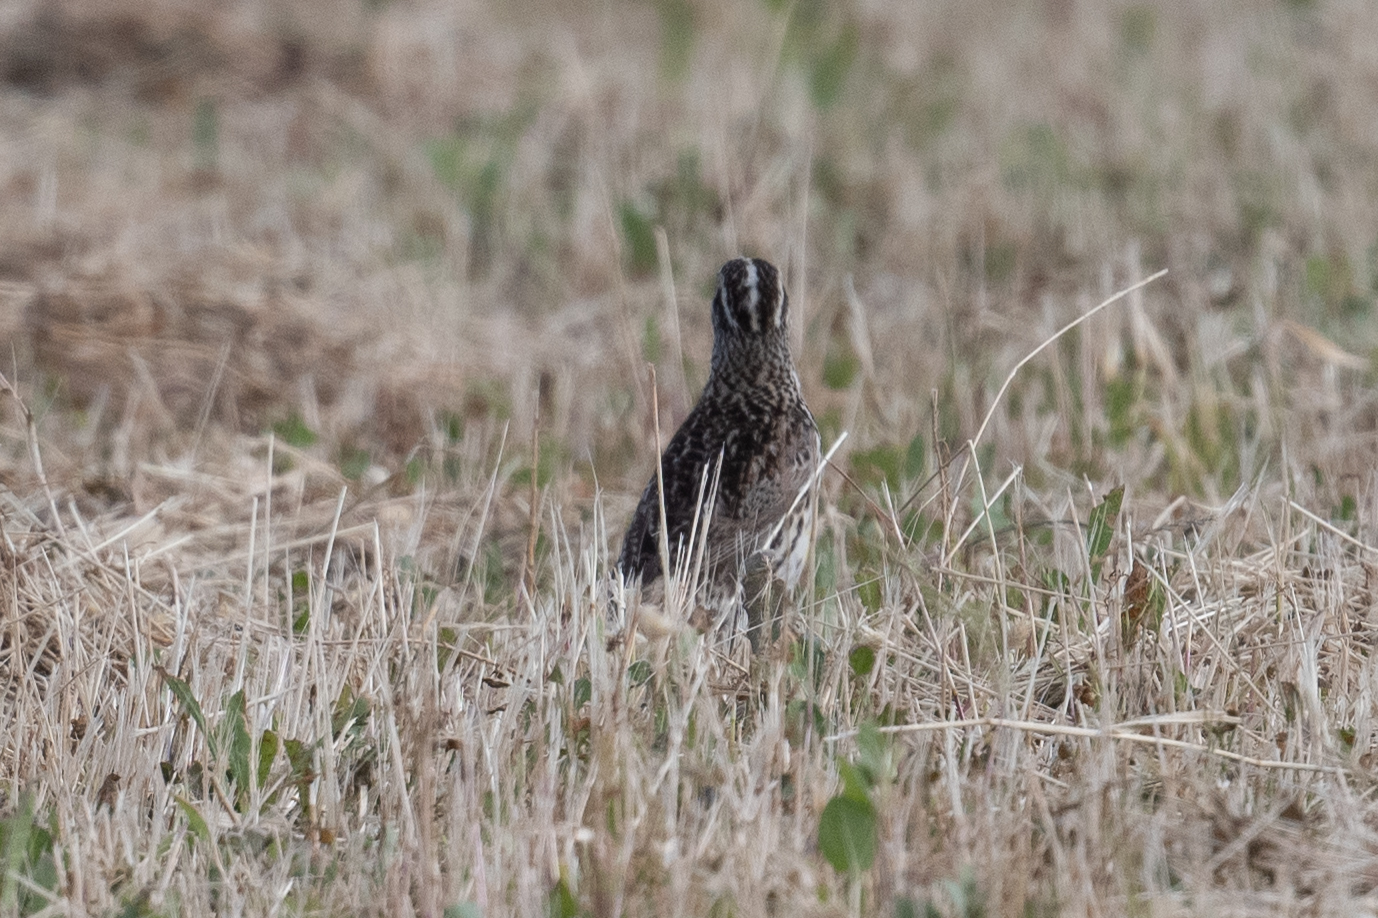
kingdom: Animalia
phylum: Chordata
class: Aves
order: Passeriformes
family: Icteridae
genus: Sturnella
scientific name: Sturnella neglecta
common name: Western meadowlark
